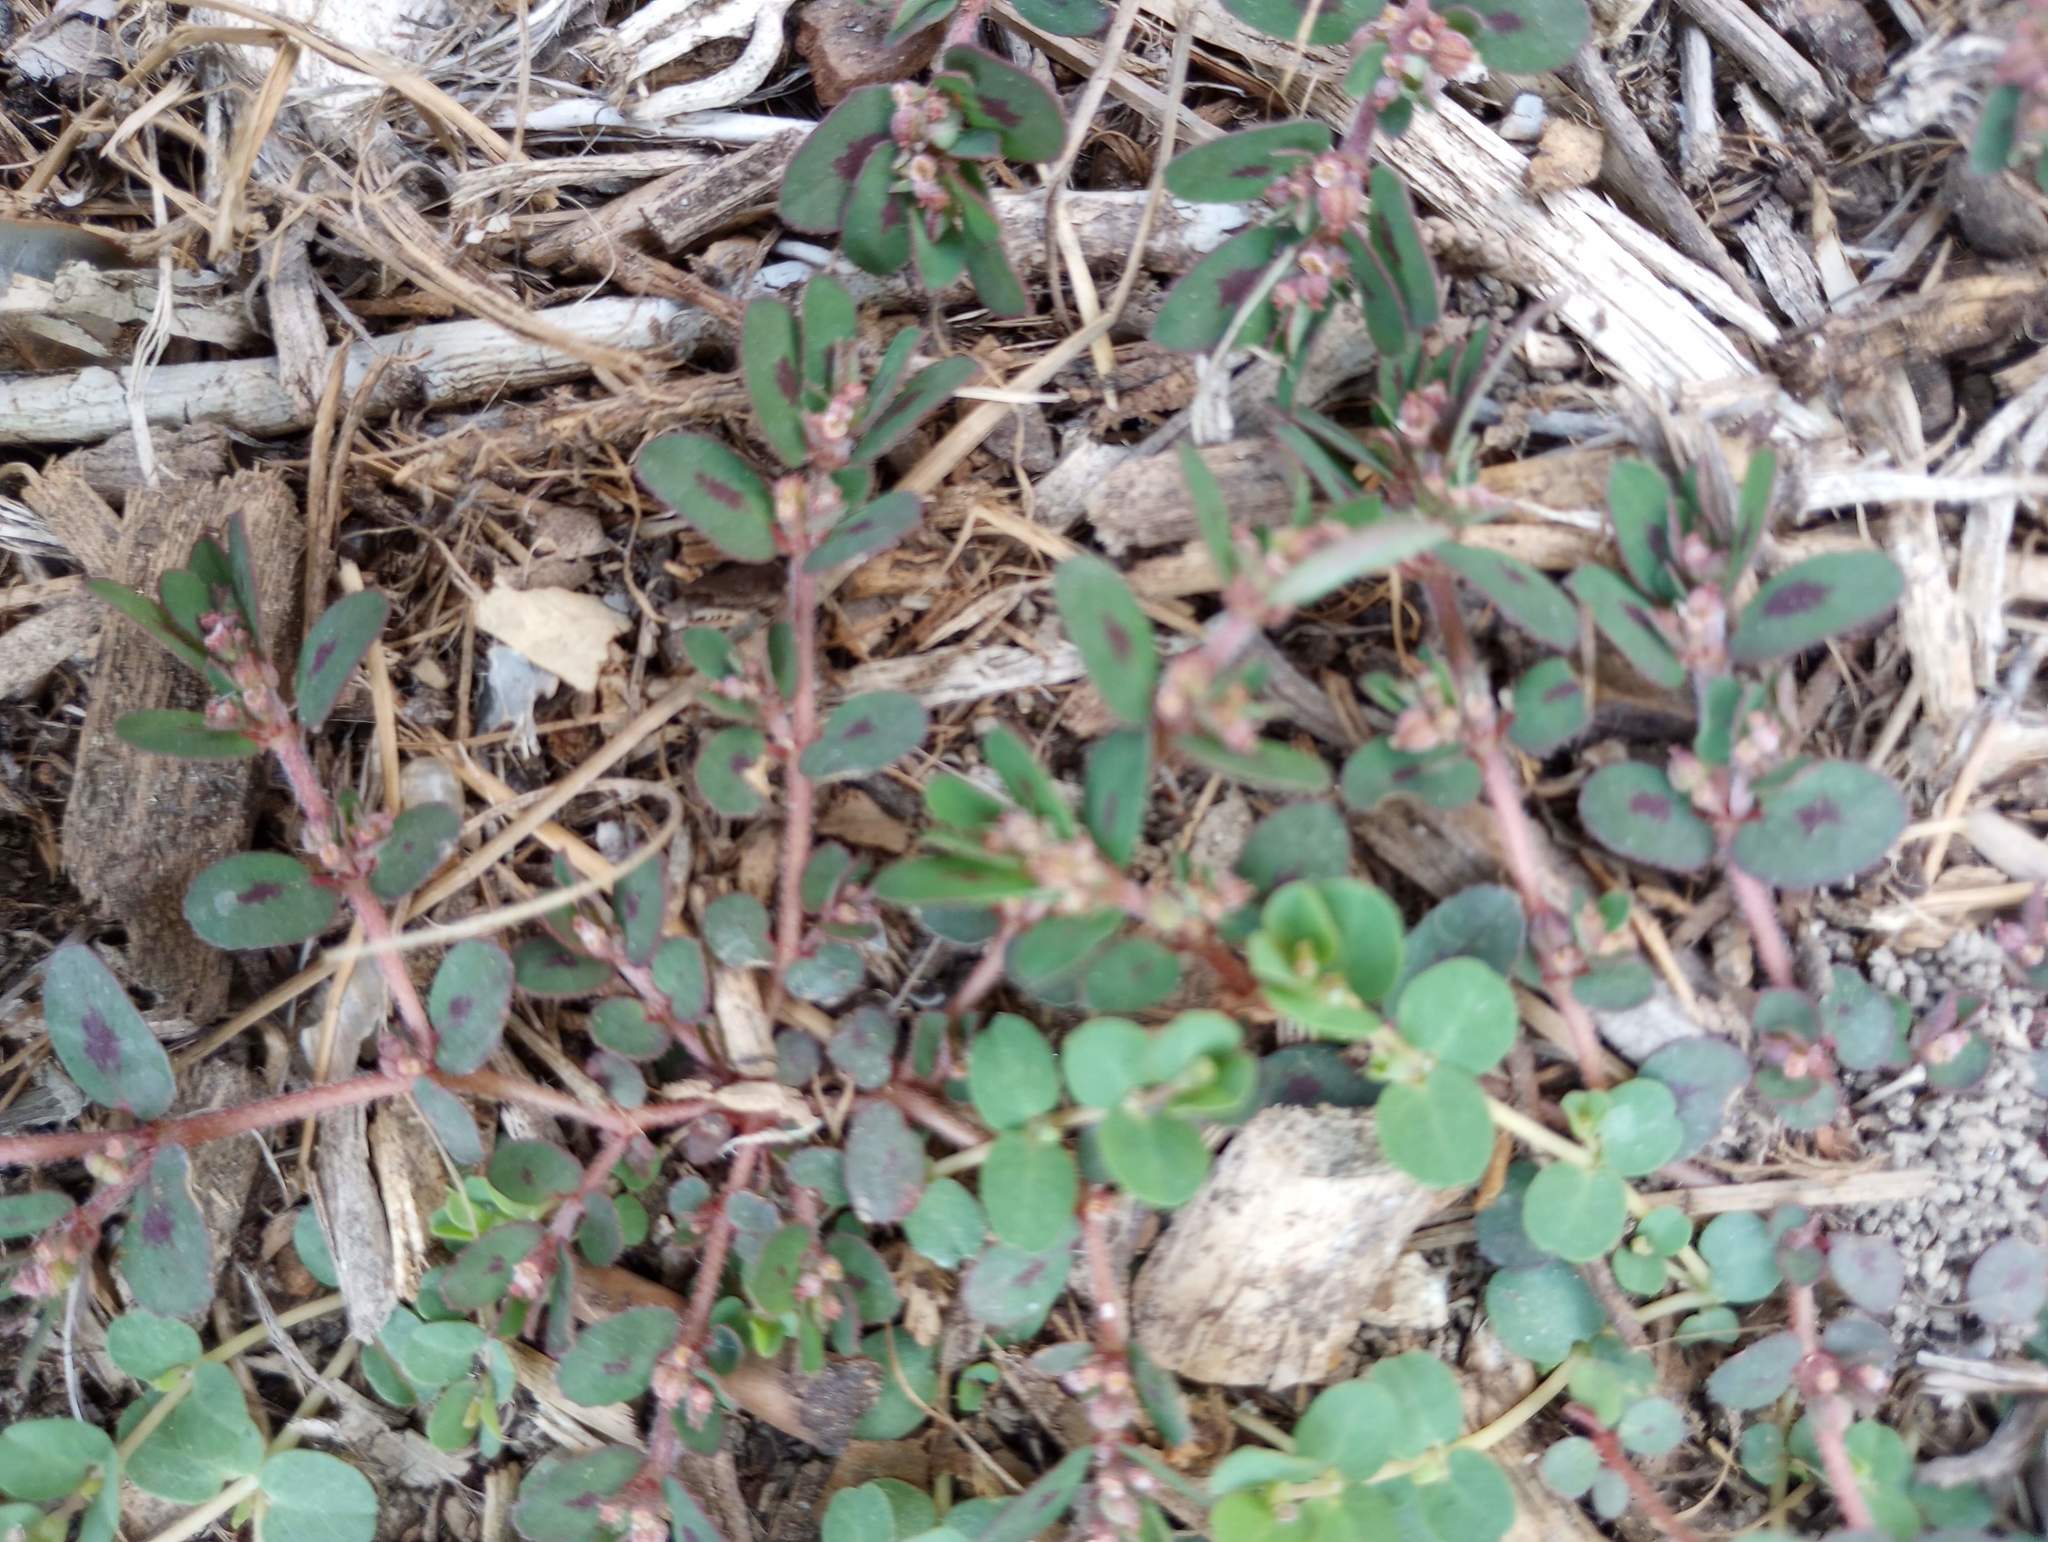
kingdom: Plantae
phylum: Tracheophyta
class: Magnoliopsida
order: Malpighiales
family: Euphorbiaceae
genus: Euphorbia
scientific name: Euphorbia maculata
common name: Spotted spurge
